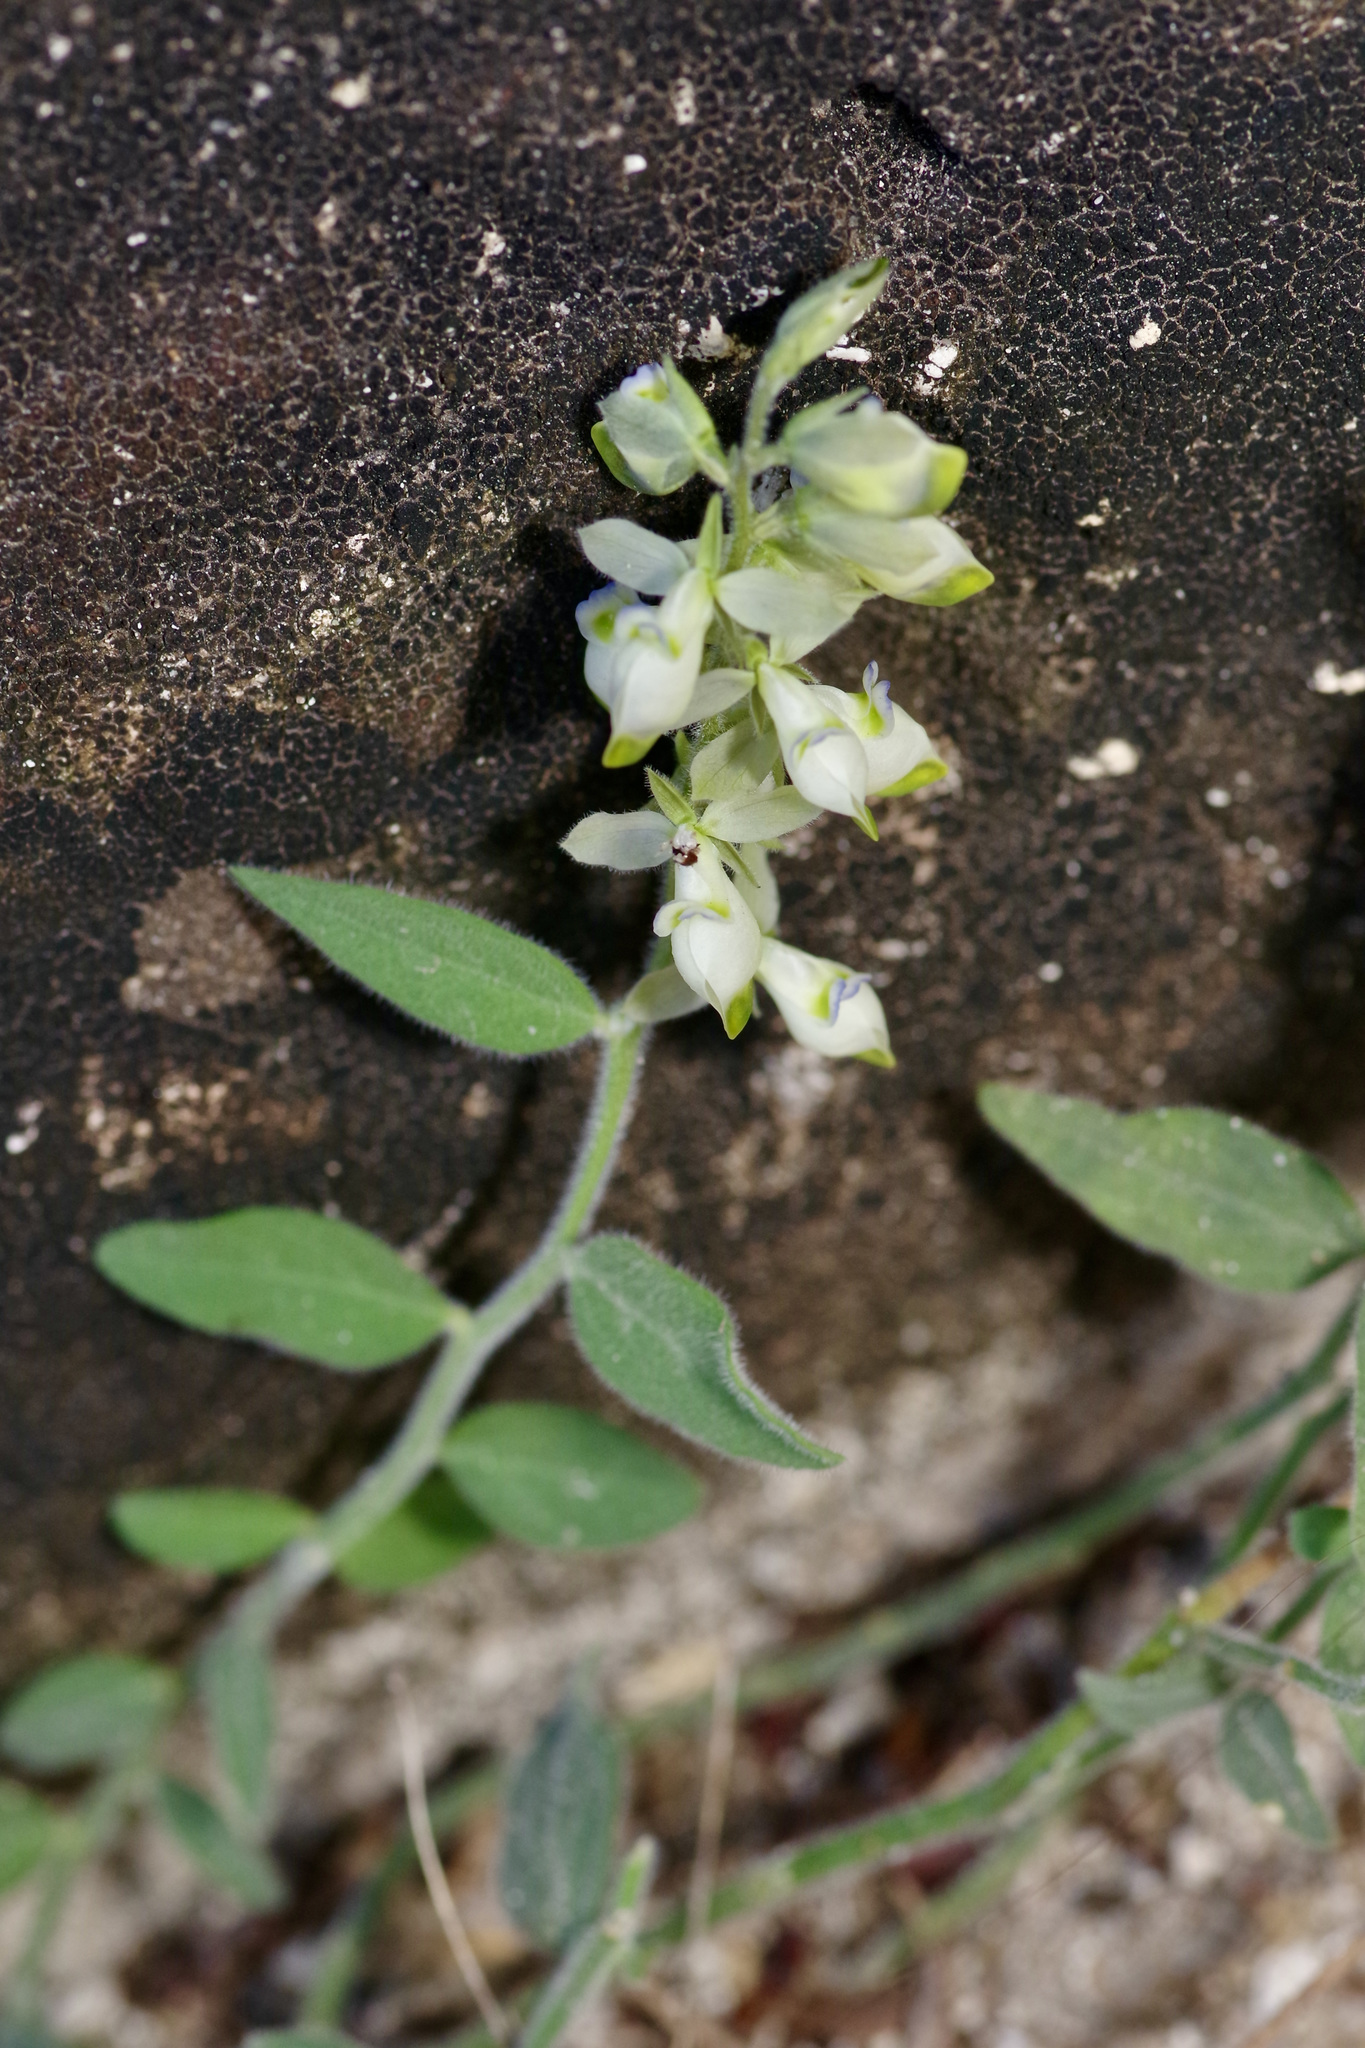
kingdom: Plantae
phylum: Tracheophyta
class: Magnoliopsida
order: Fabales
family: Polygalaceae
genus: Hebecarpa
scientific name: Hebecarpa ovatifolia
